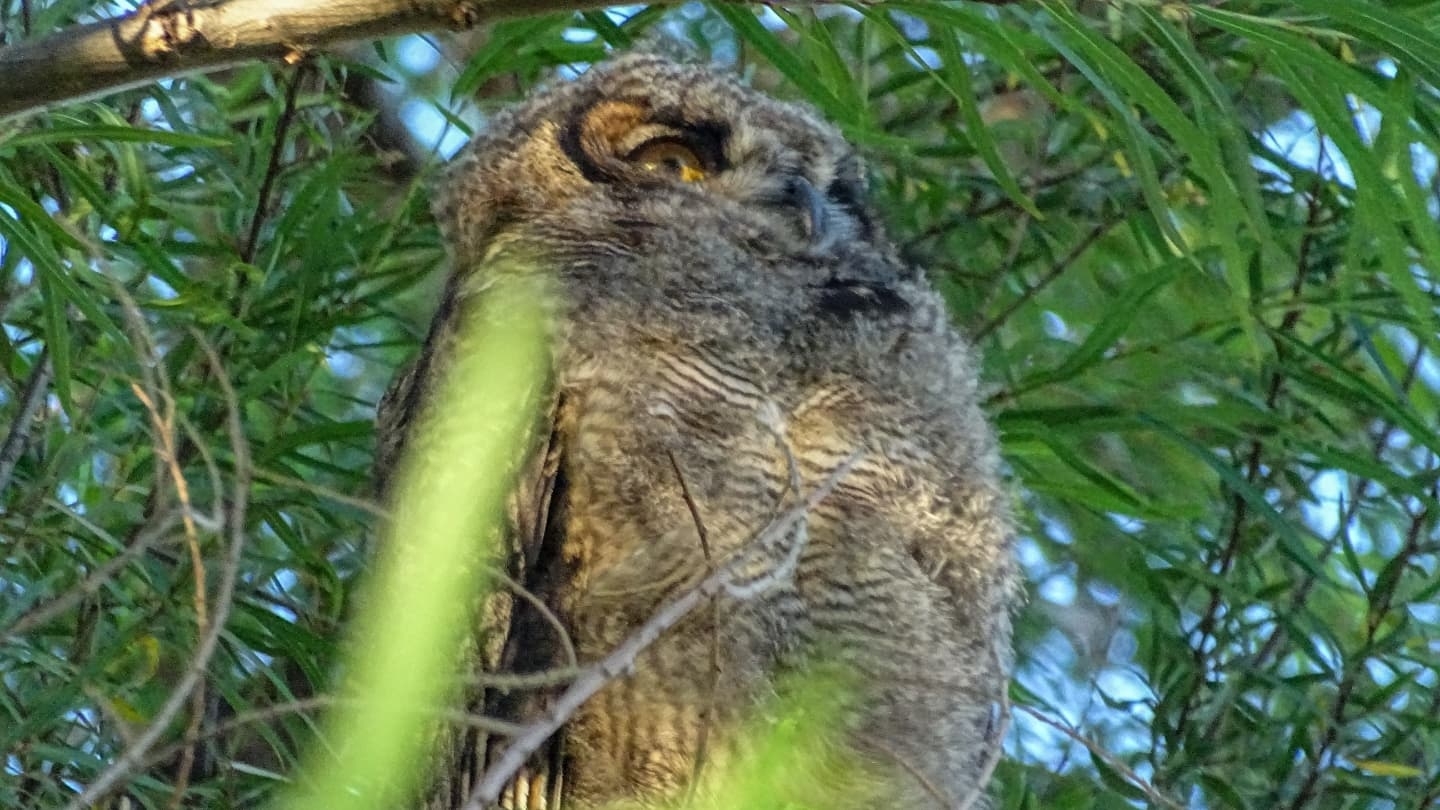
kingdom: Animalia
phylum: Chordata
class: Aves
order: Strigiformes
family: Strigidae
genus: Bubo
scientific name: Bubo magellanicus
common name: Lesser horned owl
